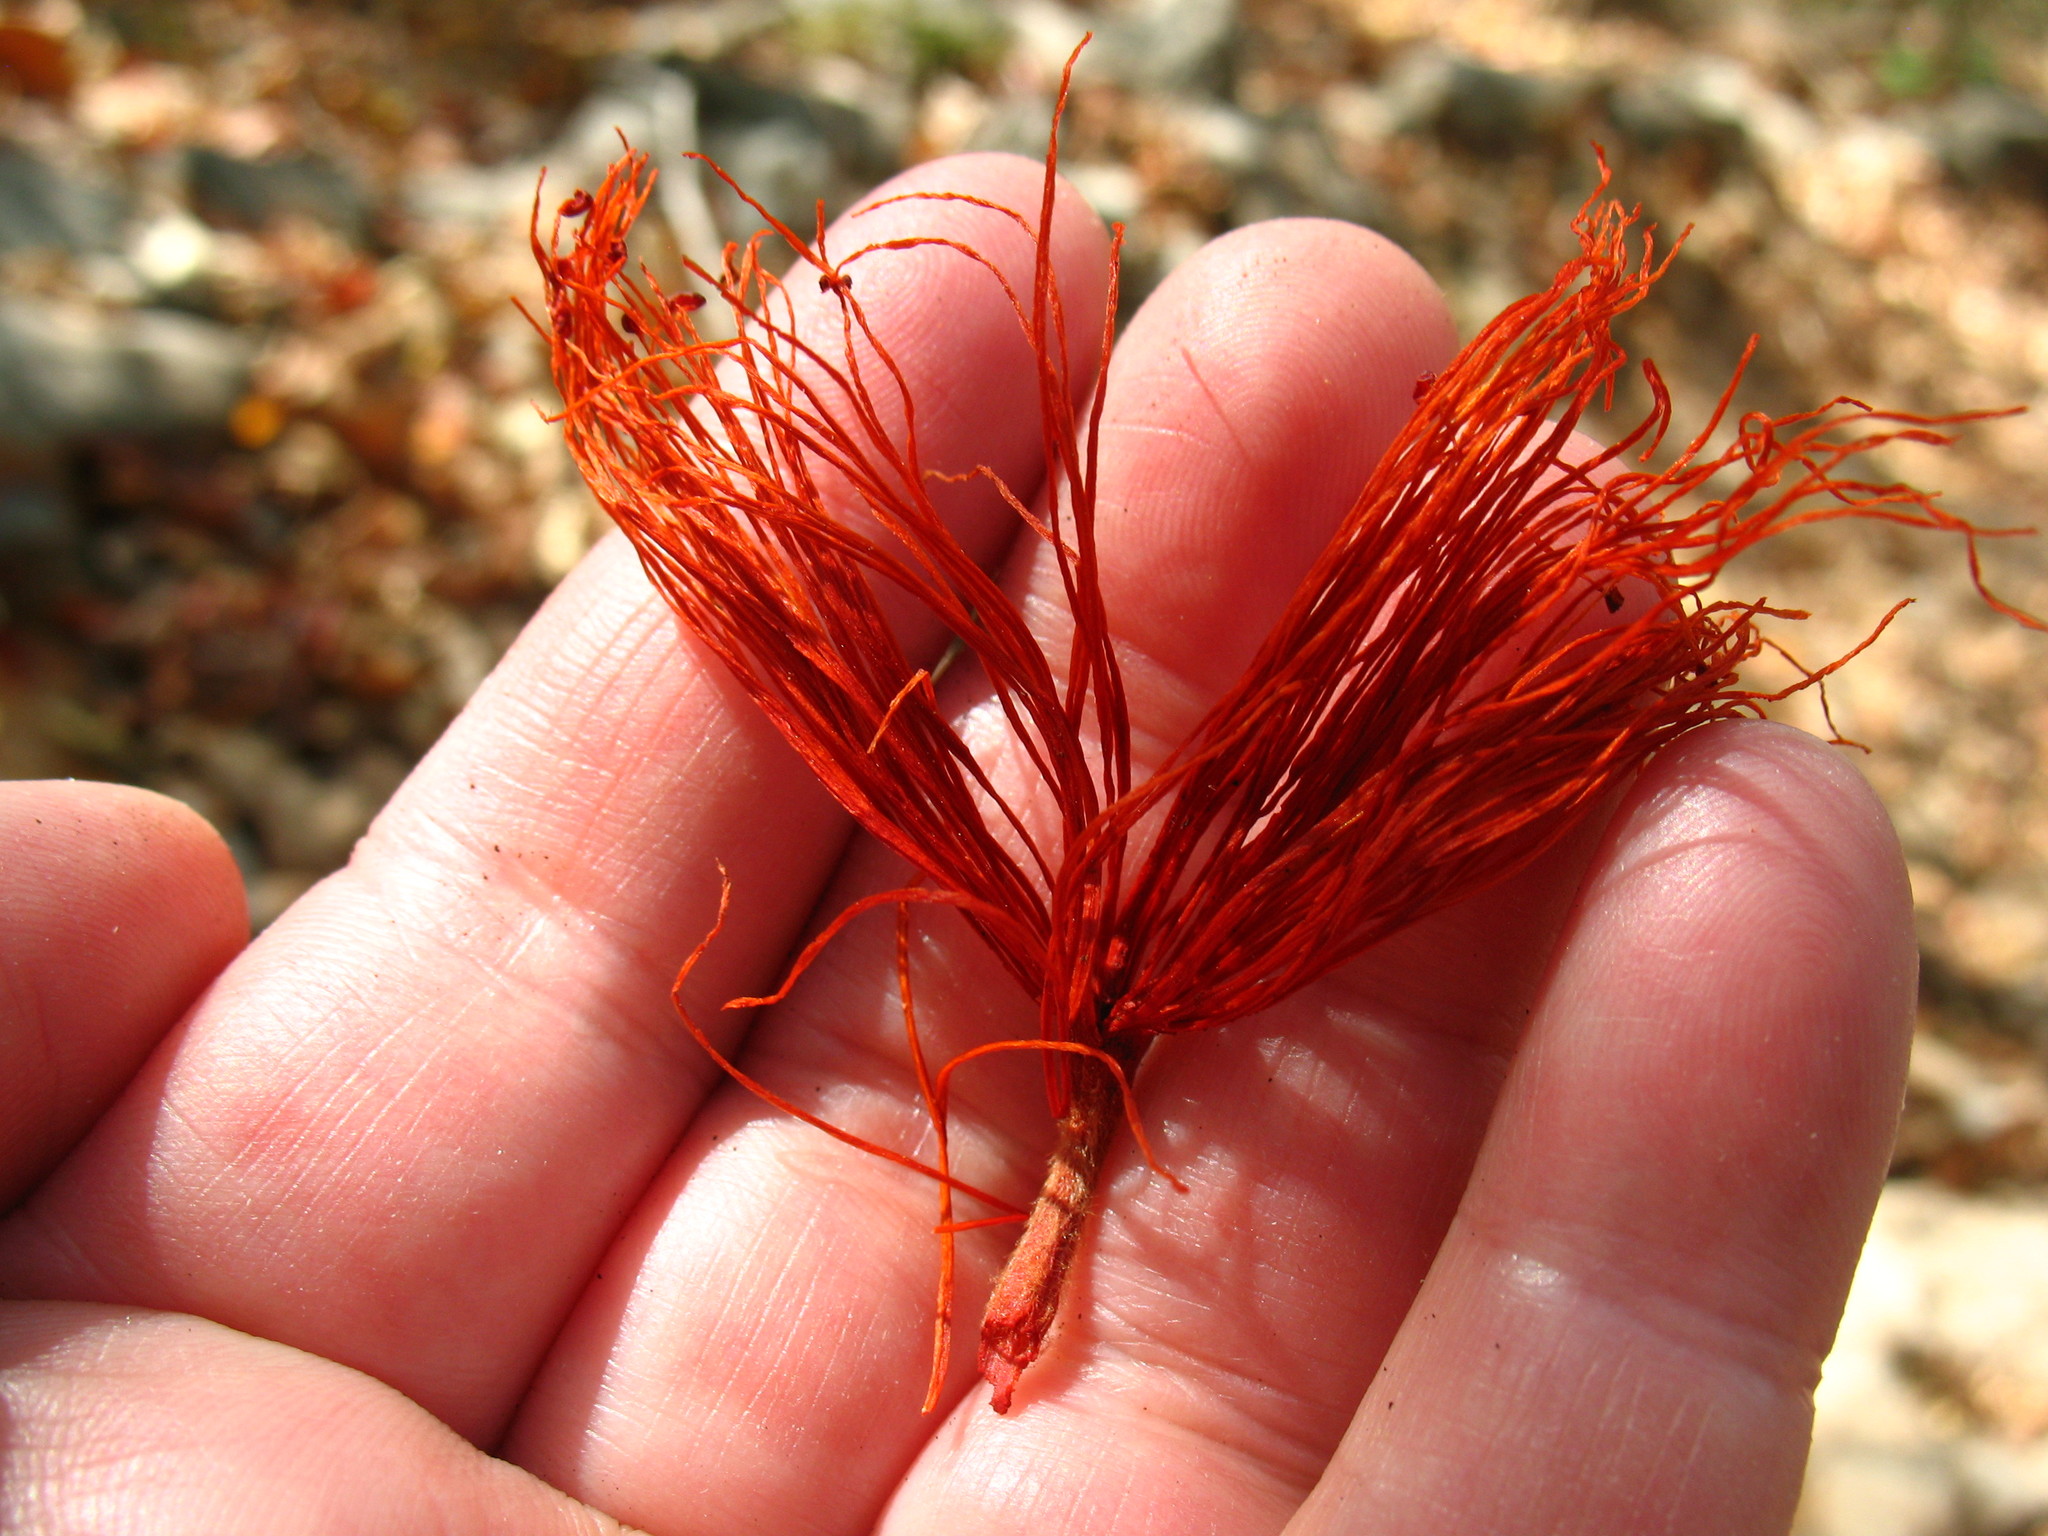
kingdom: Plantae
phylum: Tracheophyta
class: Magnoliopsida
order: Malvales
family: Malvaceae
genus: Pochota
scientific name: Pochota fendleri
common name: Chestnut
